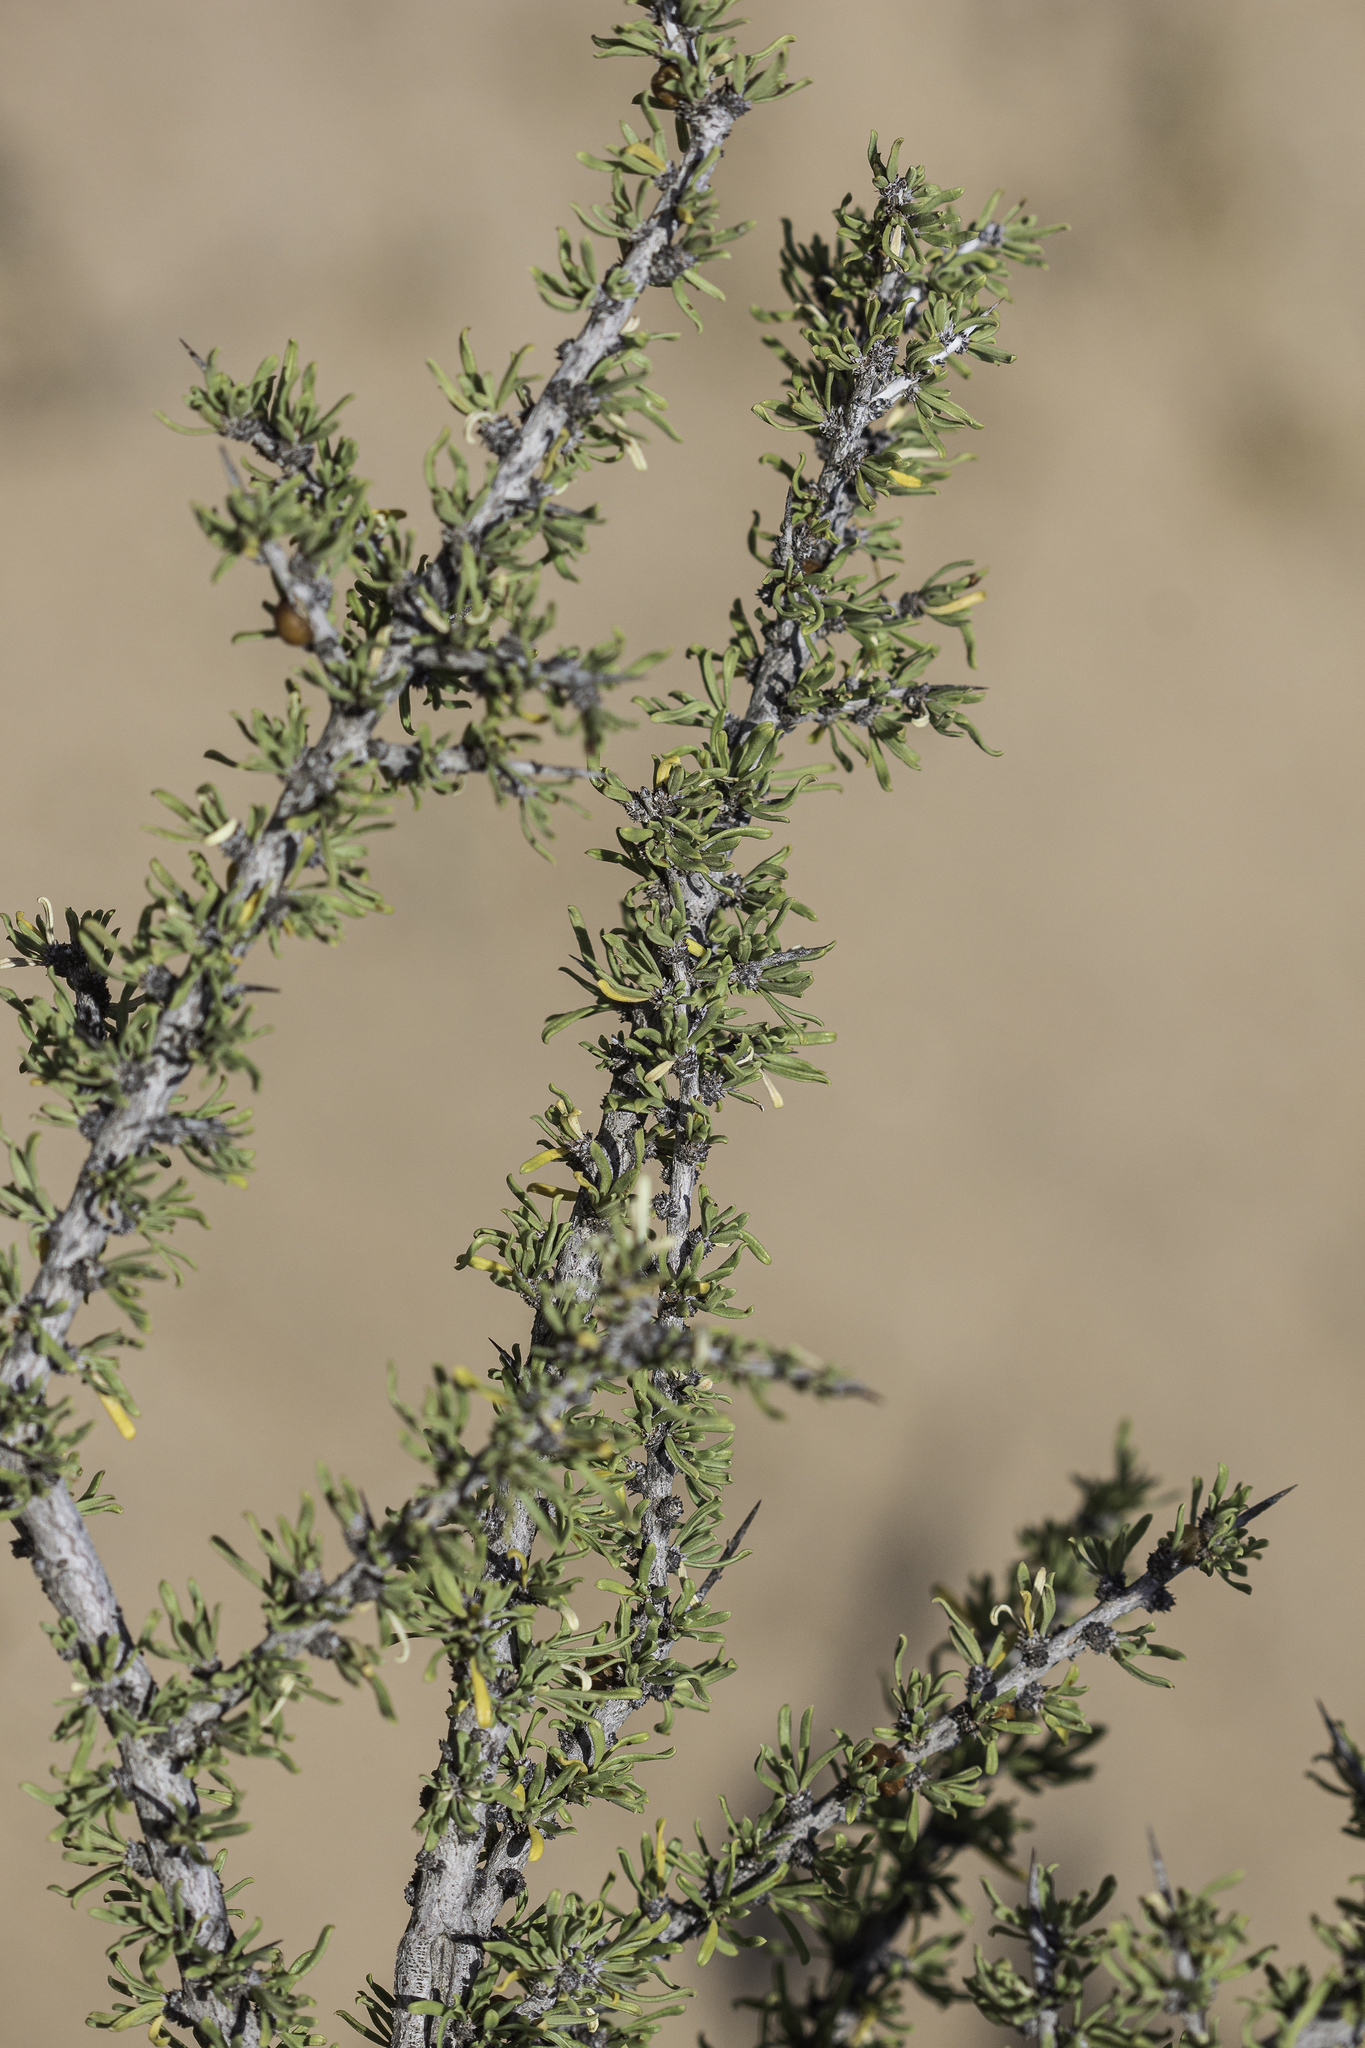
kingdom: Plantae
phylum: Tracheophyta
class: Magnoliopsida
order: Rosales
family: Rhamnaceae
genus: Condalia
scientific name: Condalia ericoides
